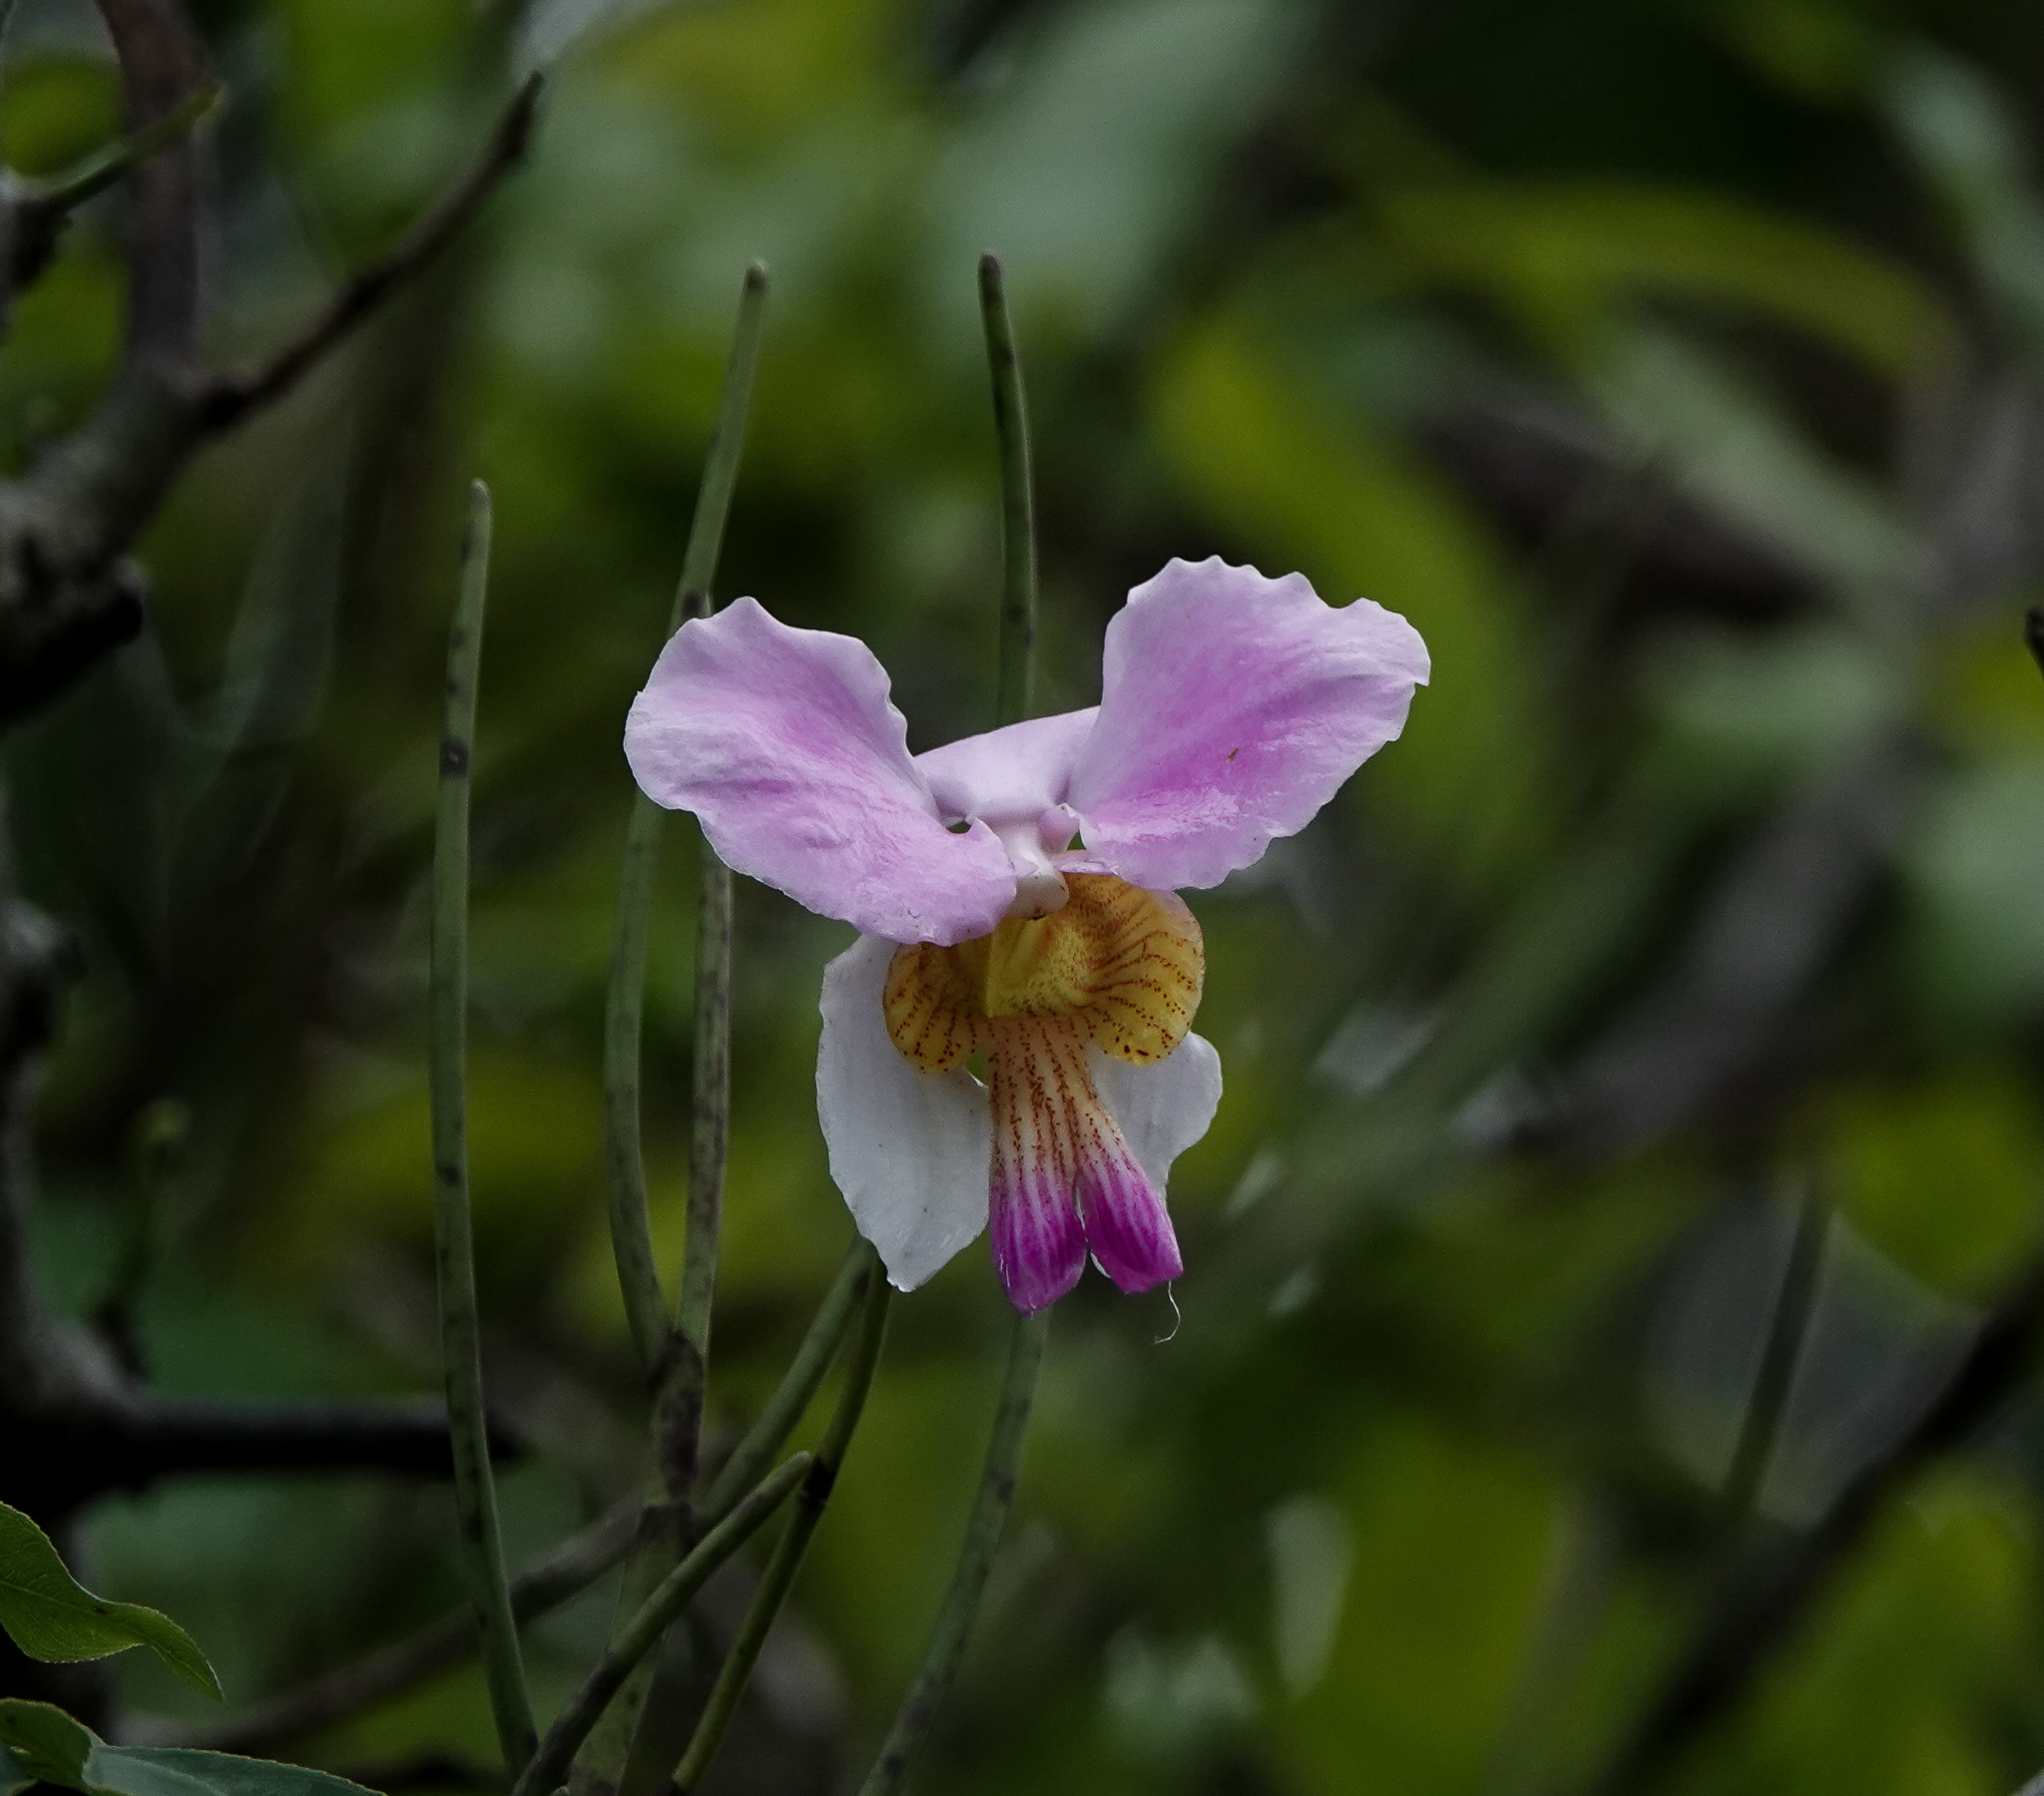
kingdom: Plantae
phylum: Tracheophyta
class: Liliopsida
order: Asparagales
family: Orchidaceae
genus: Papilionanthe
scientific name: Papilionanthe teres
